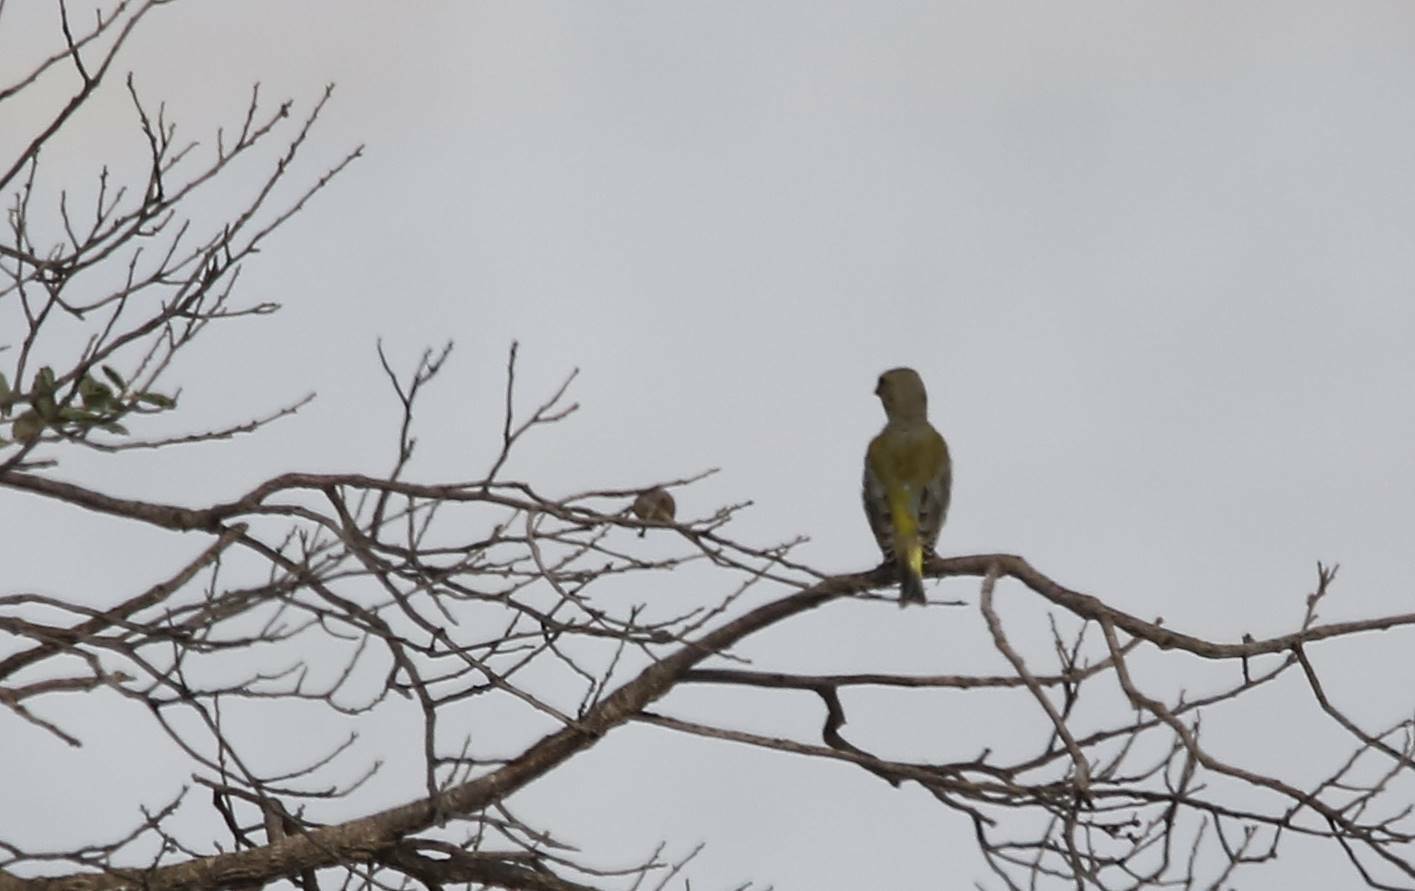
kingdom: Plantae
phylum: Tracheophyta
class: Liliopsida
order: Poales
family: Poaceae
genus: Chloris
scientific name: Chloris chloris
